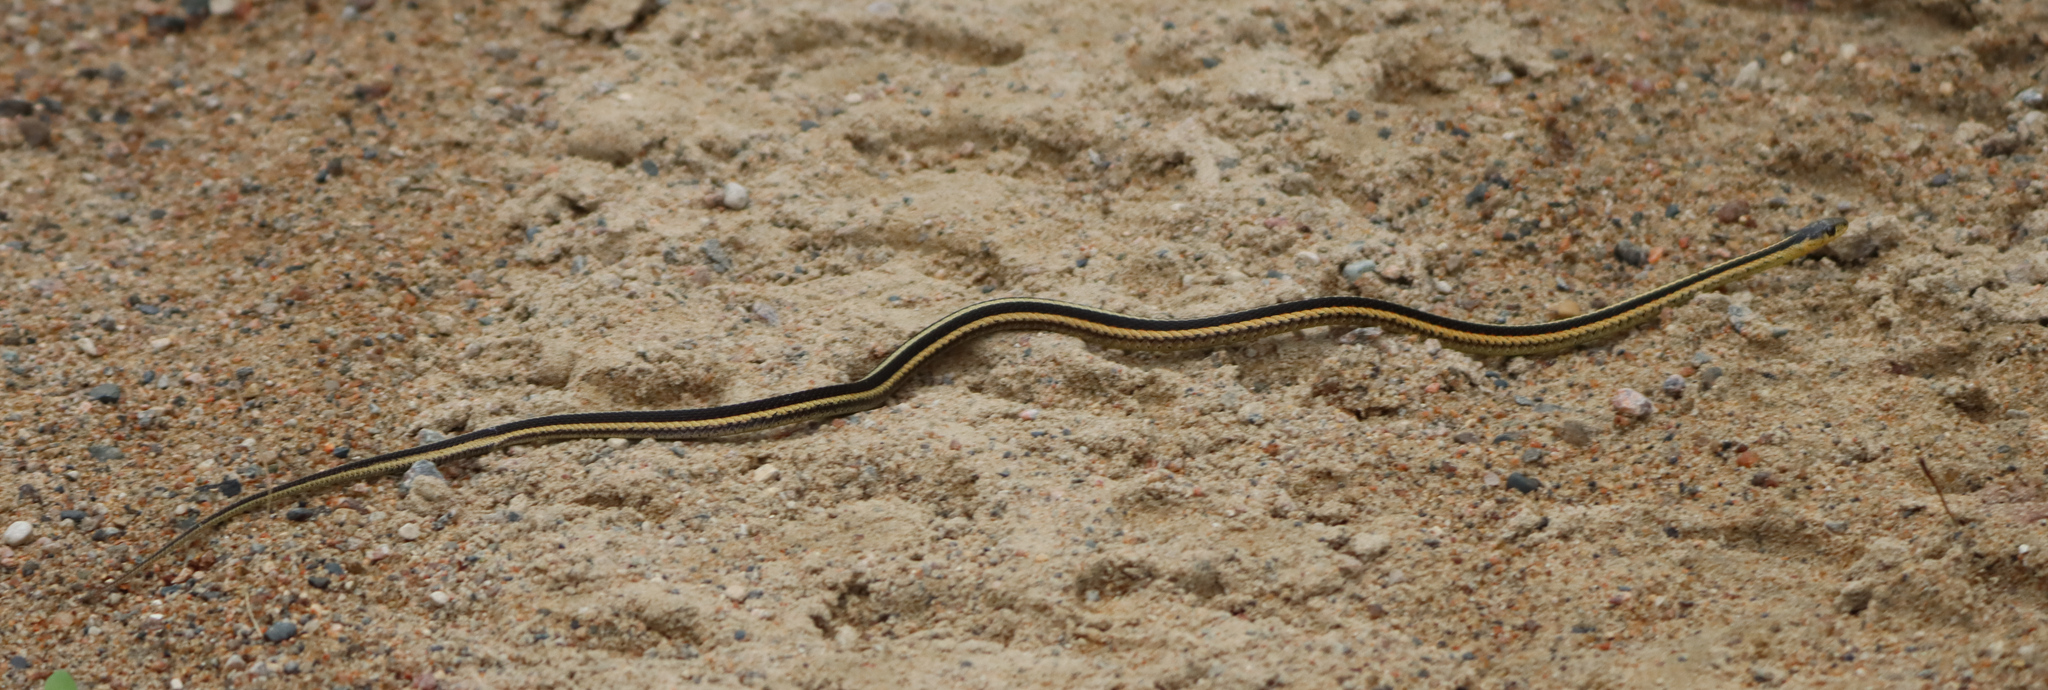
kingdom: Animalia
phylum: Chordata
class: Squamata
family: Colubridae
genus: Thamnophis
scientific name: Thamnophis sirtalis
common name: Common garter snake
